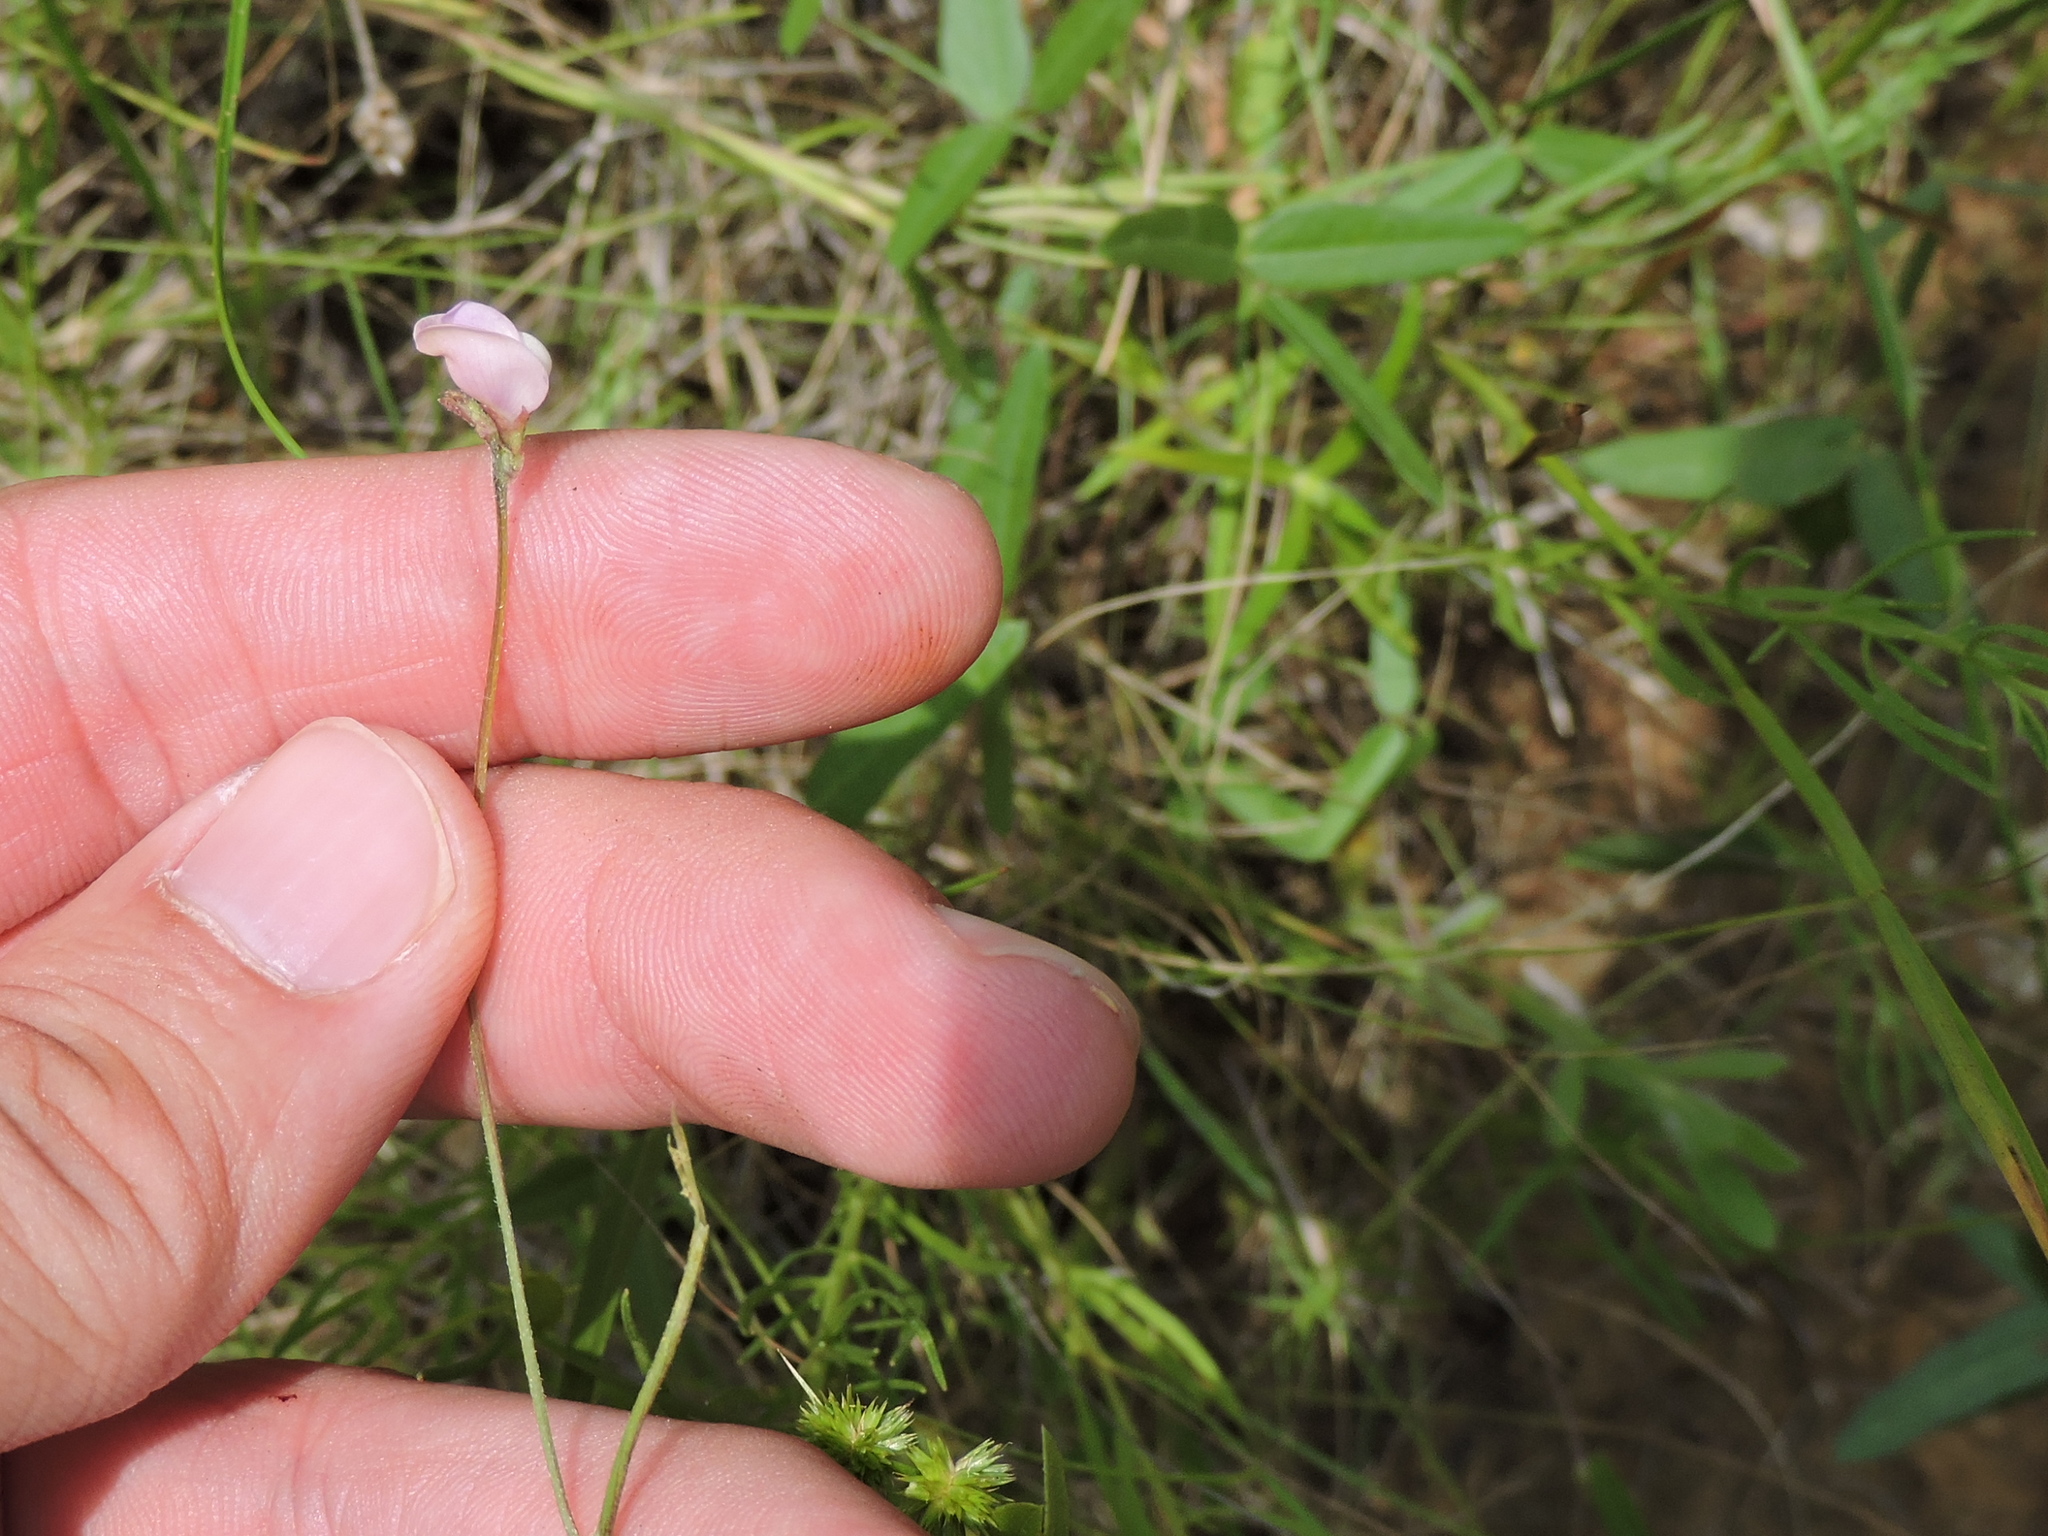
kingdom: Plantae
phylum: Tracheophyta
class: Magnoliopsida
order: Fabales
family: Fabaceae
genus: Strophostyles
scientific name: Strophostyles leiosperma
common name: Smooth-seed wild bean
